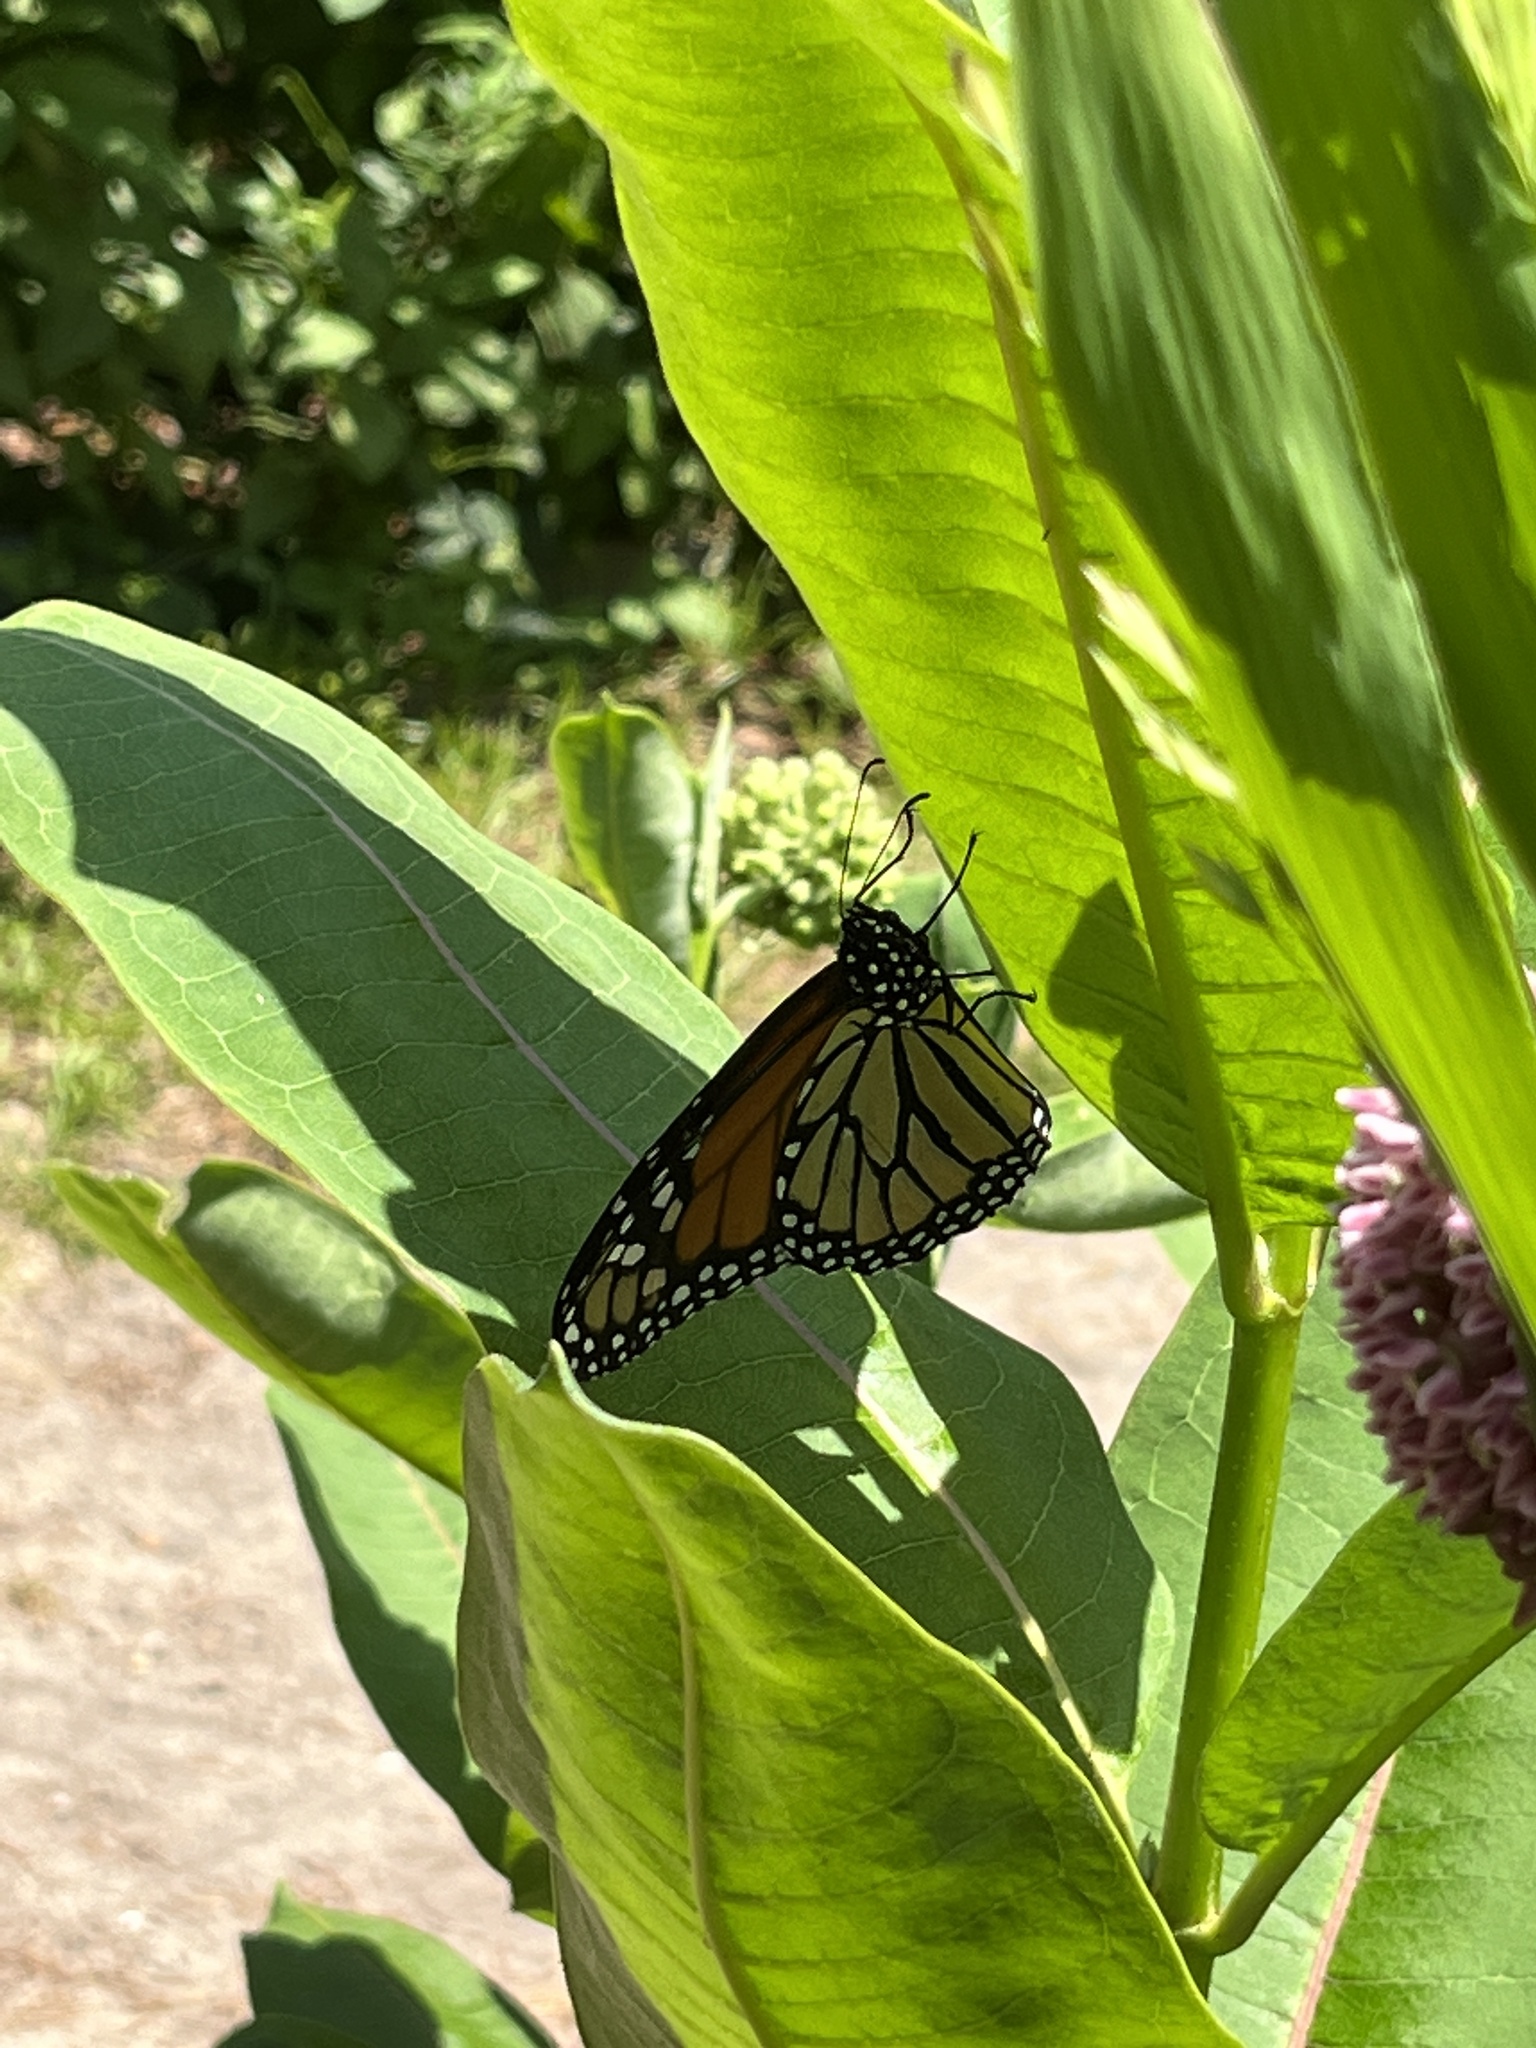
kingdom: Animalia
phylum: Arthropoda
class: Insecta
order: Lepidoptera
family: Nymphalidae
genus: Danaus
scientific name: Danaus plexippus
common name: Monarch
